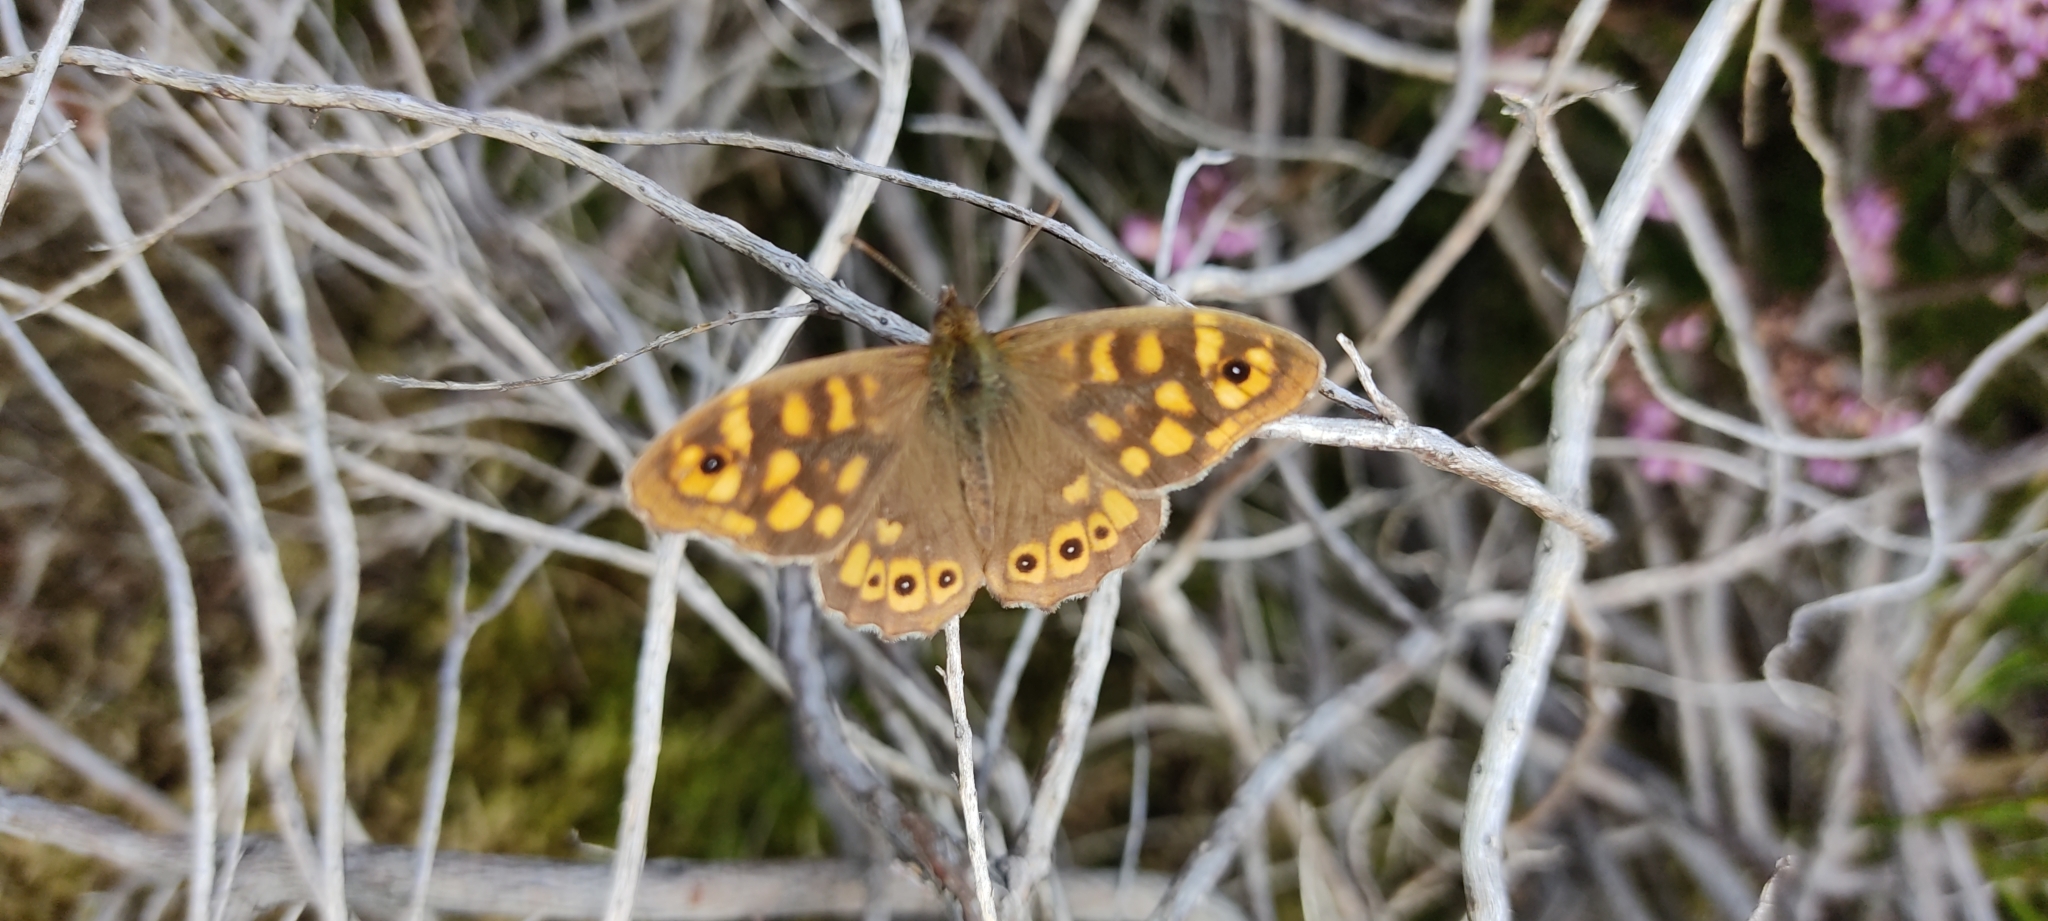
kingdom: Animalia
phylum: Arthropoda
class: Insecta
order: Lepidoptera
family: Nymphalidae
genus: Pararge
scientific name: Pararge aegeria
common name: Speckled wood
